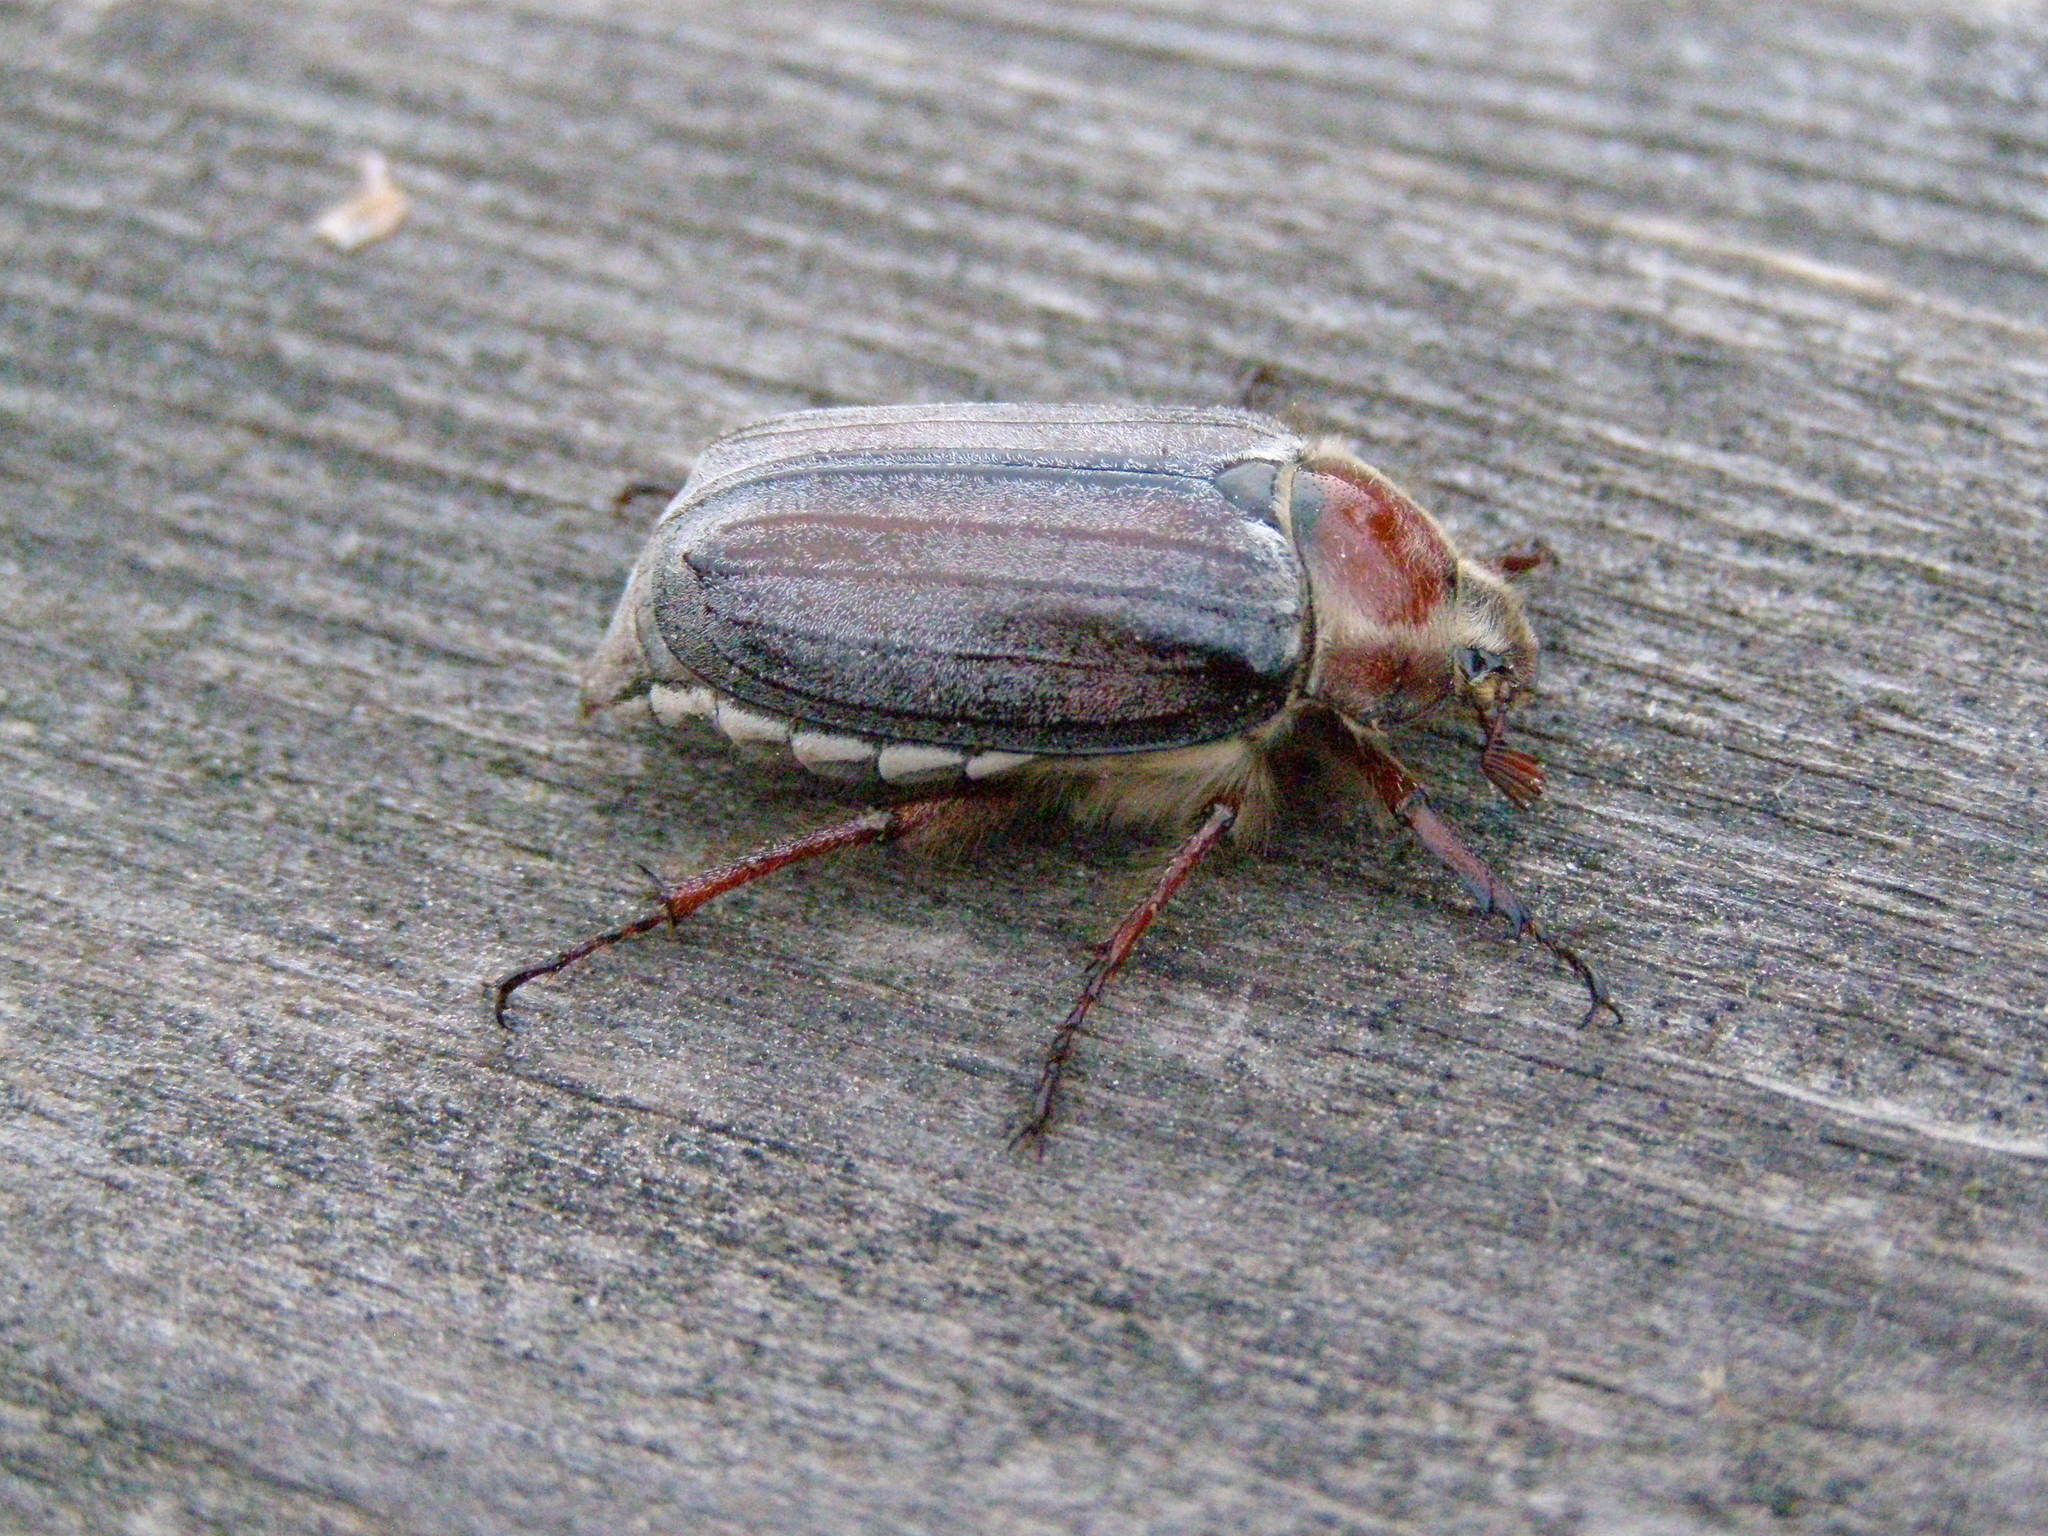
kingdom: Animalia
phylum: Arthropoda
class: Insecta
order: Coleoptera
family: Scarabaeidae
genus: Melolontha
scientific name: Melolontha hippocastani
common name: Chestnut cockchafer
